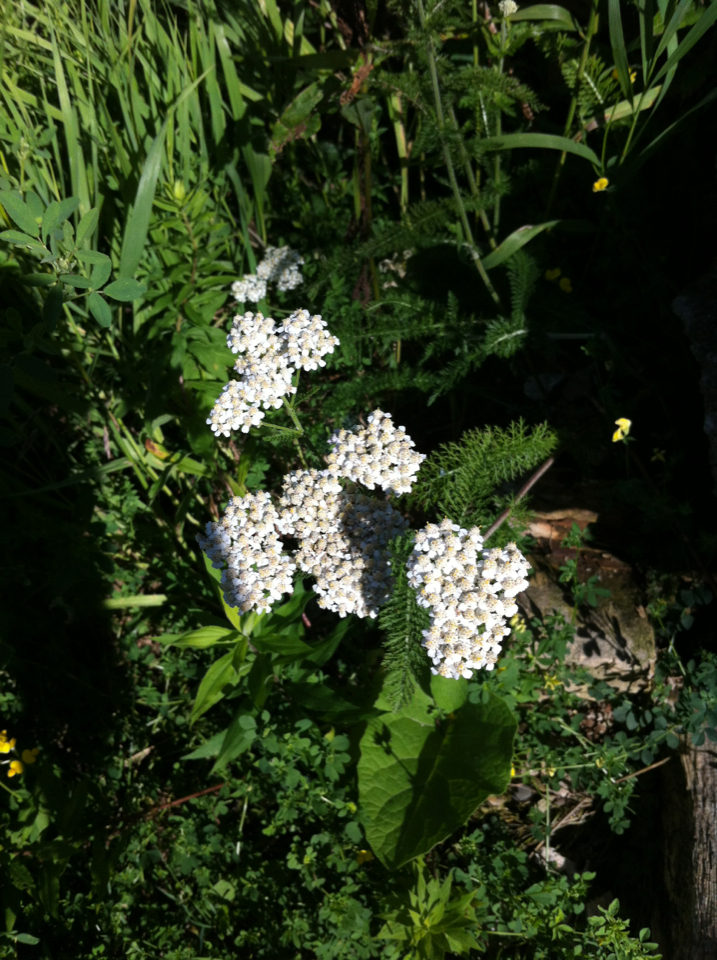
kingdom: Plantae
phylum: Tracheophyta
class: Magnoliopsida
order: Asterales
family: Asteraceae
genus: Achillea
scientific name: Achillea millefolium
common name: Yarrow
